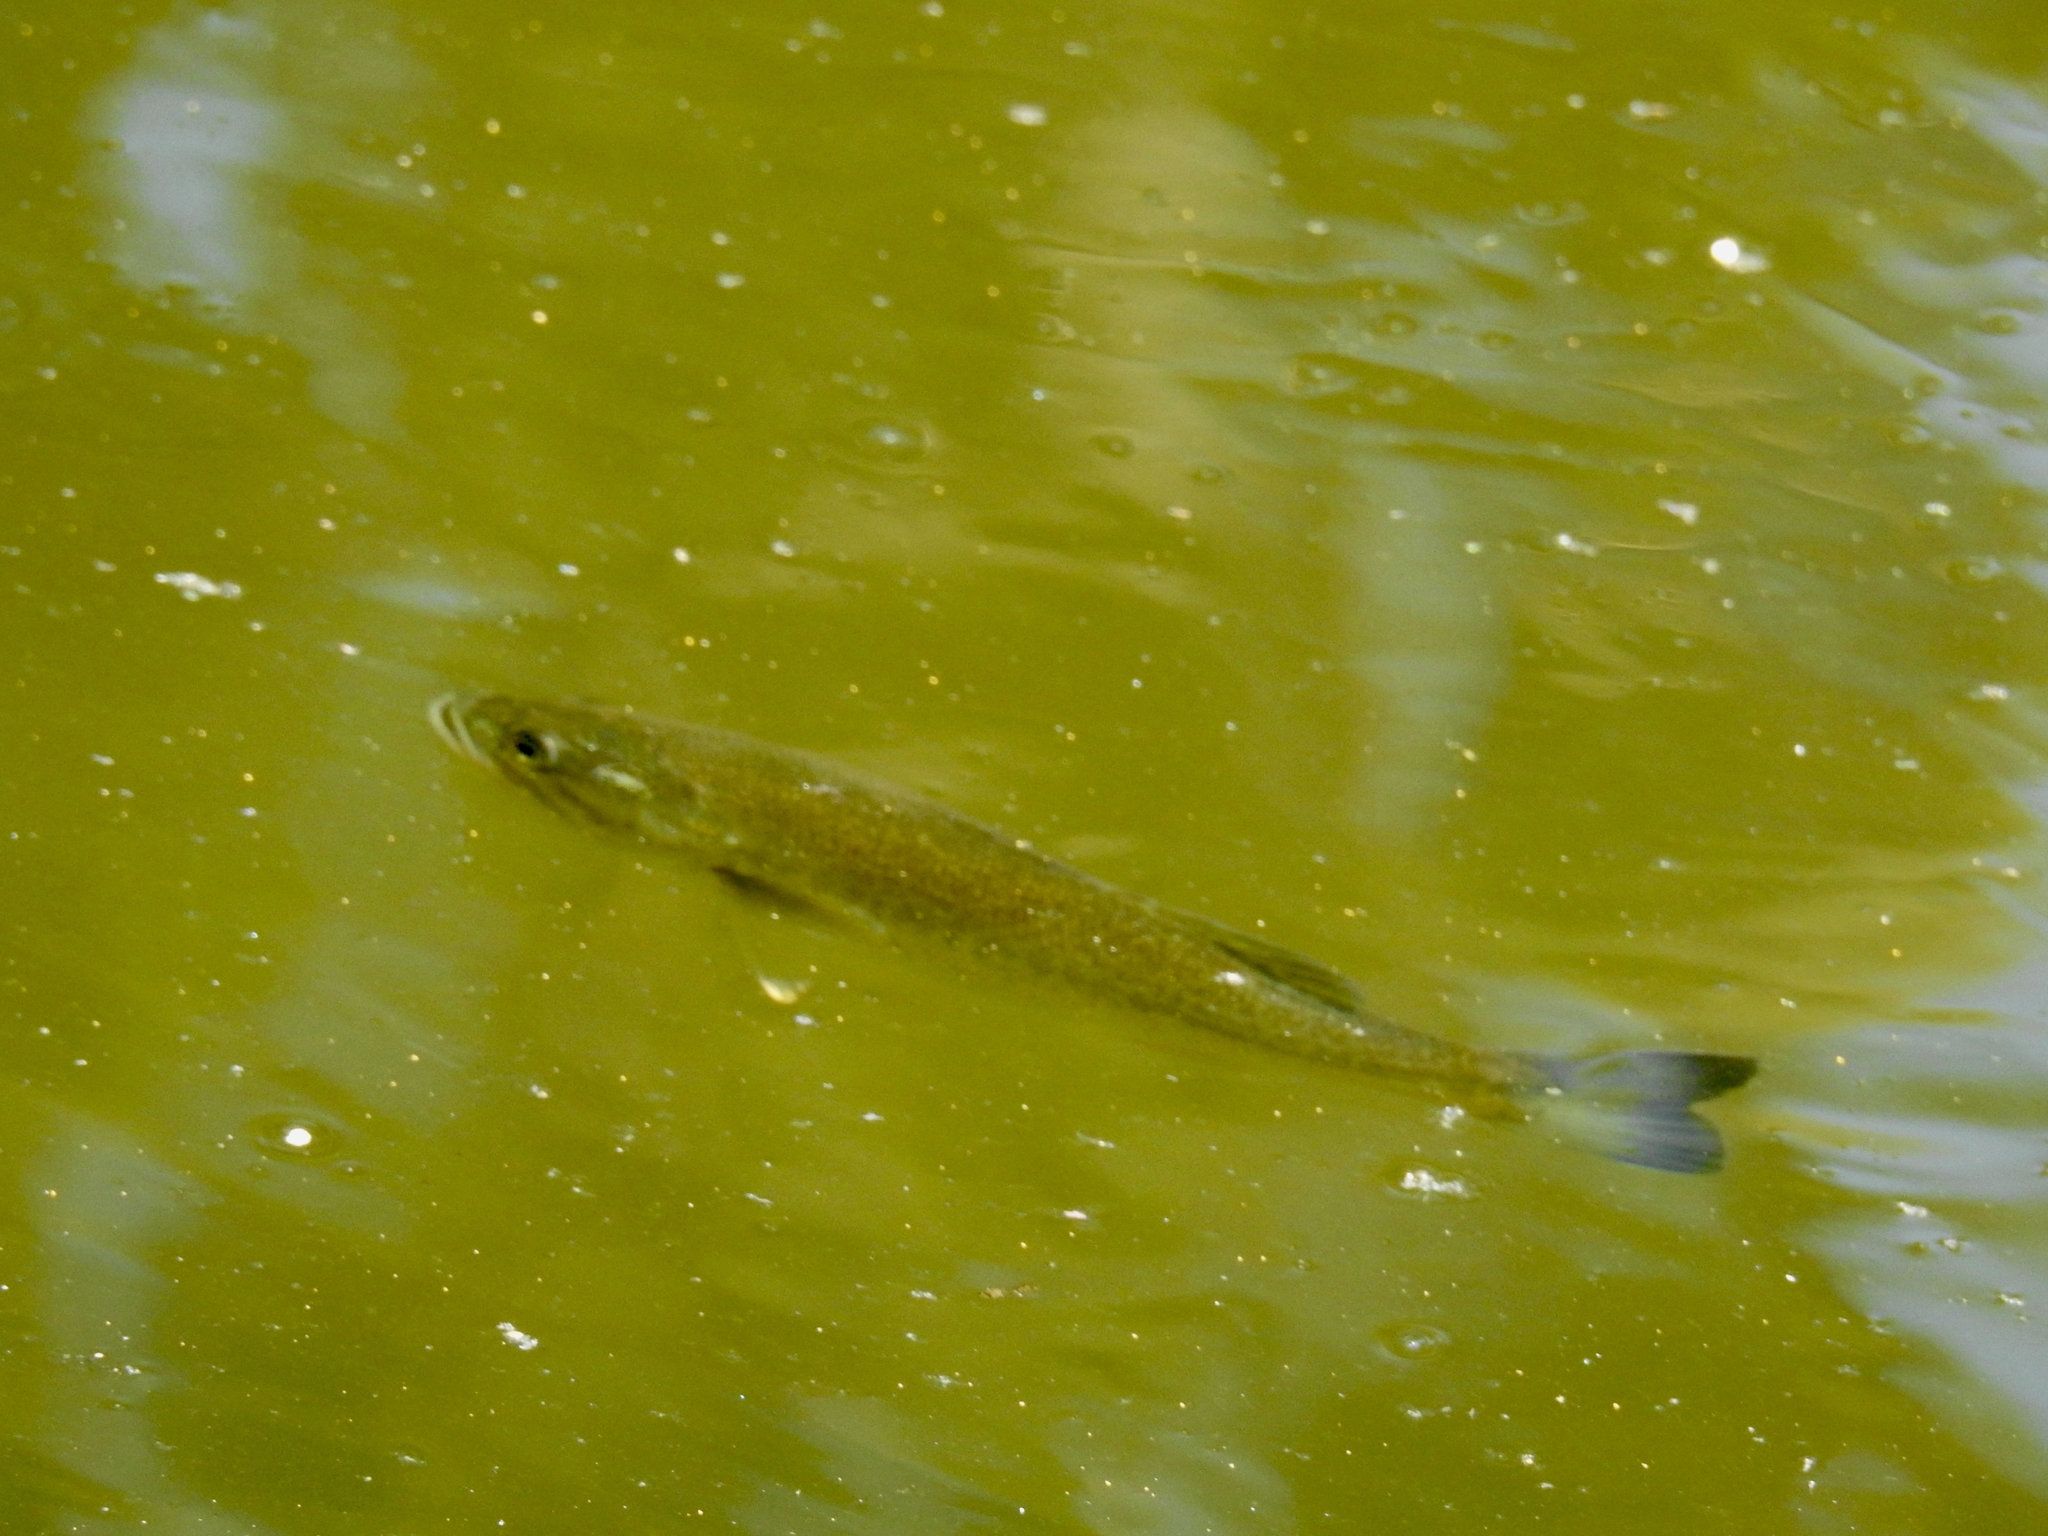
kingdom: Animalia
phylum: Chordata
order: Perciformes
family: Centrarchidae
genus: Micropterus
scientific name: Micropterus
